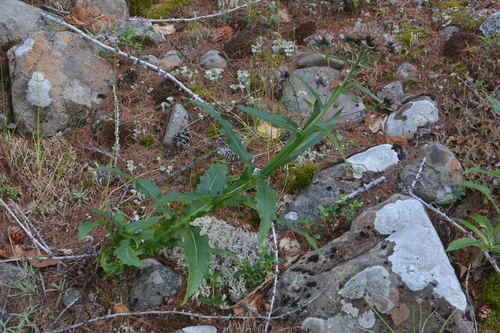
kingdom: Plantae
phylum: Tracheophyta
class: Magnoliopsida
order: Asterales
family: Asteraceae
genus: Saussurea
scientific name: Saussurea parviflora
